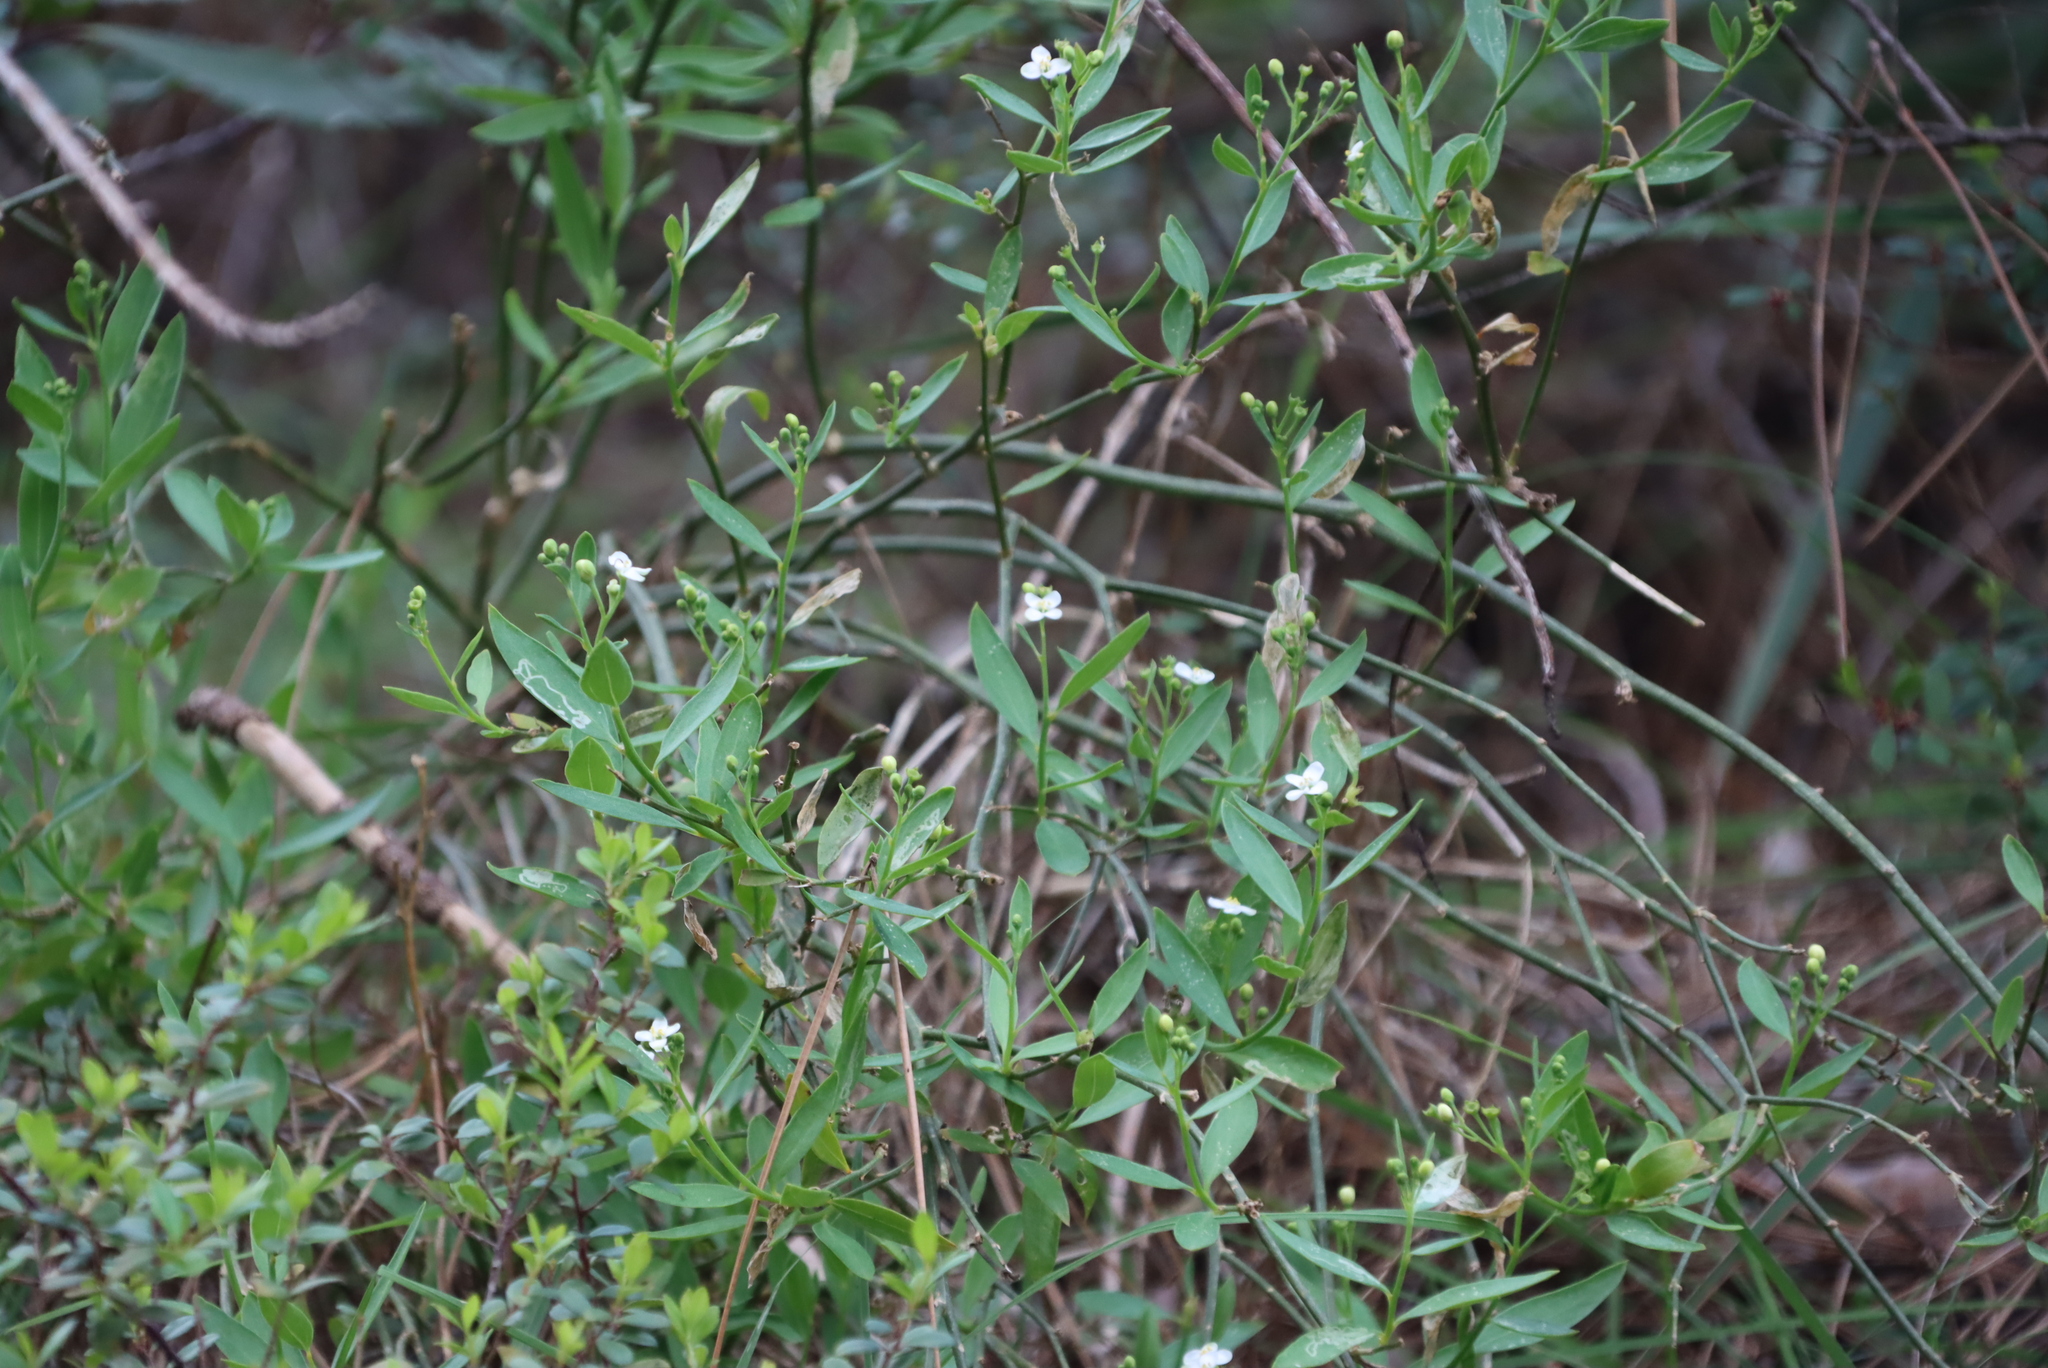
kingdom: Plantae
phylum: Tracheophyta
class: Magnoliopsida
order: Solanales
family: Montiniaceae
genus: Montinia
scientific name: Montinia caryophyllacea
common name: Wild clove-bush
